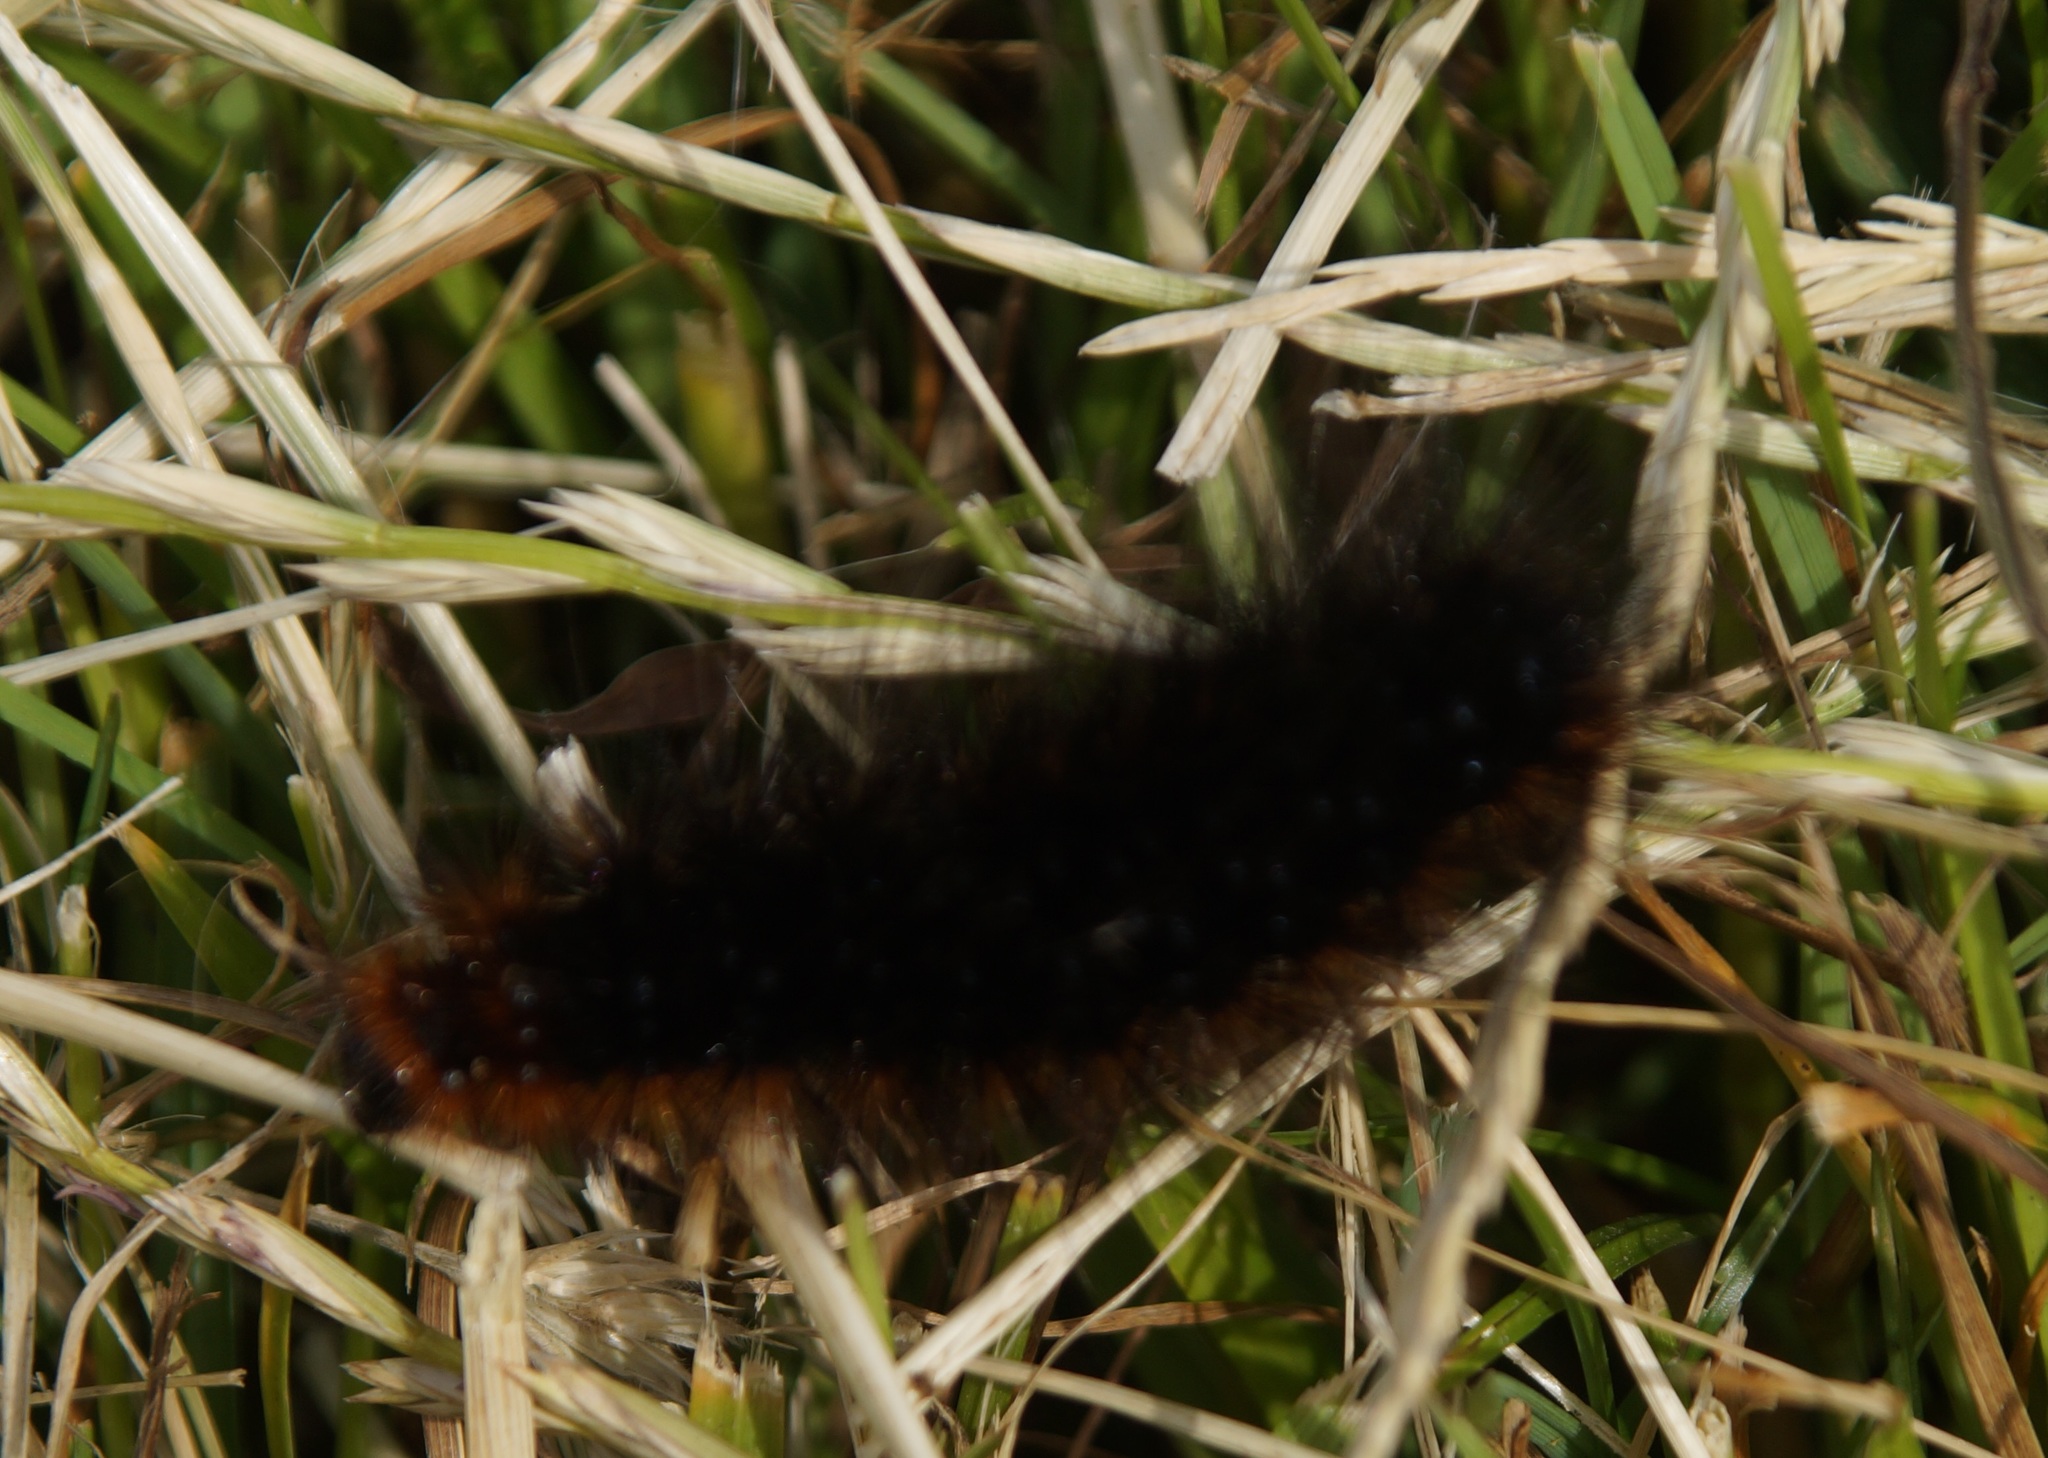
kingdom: Animalia
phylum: Arthropoda
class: Insecta
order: Lepidoptera
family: Erebidae
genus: Arctia
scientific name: Arctia caja
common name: Garden tiger
